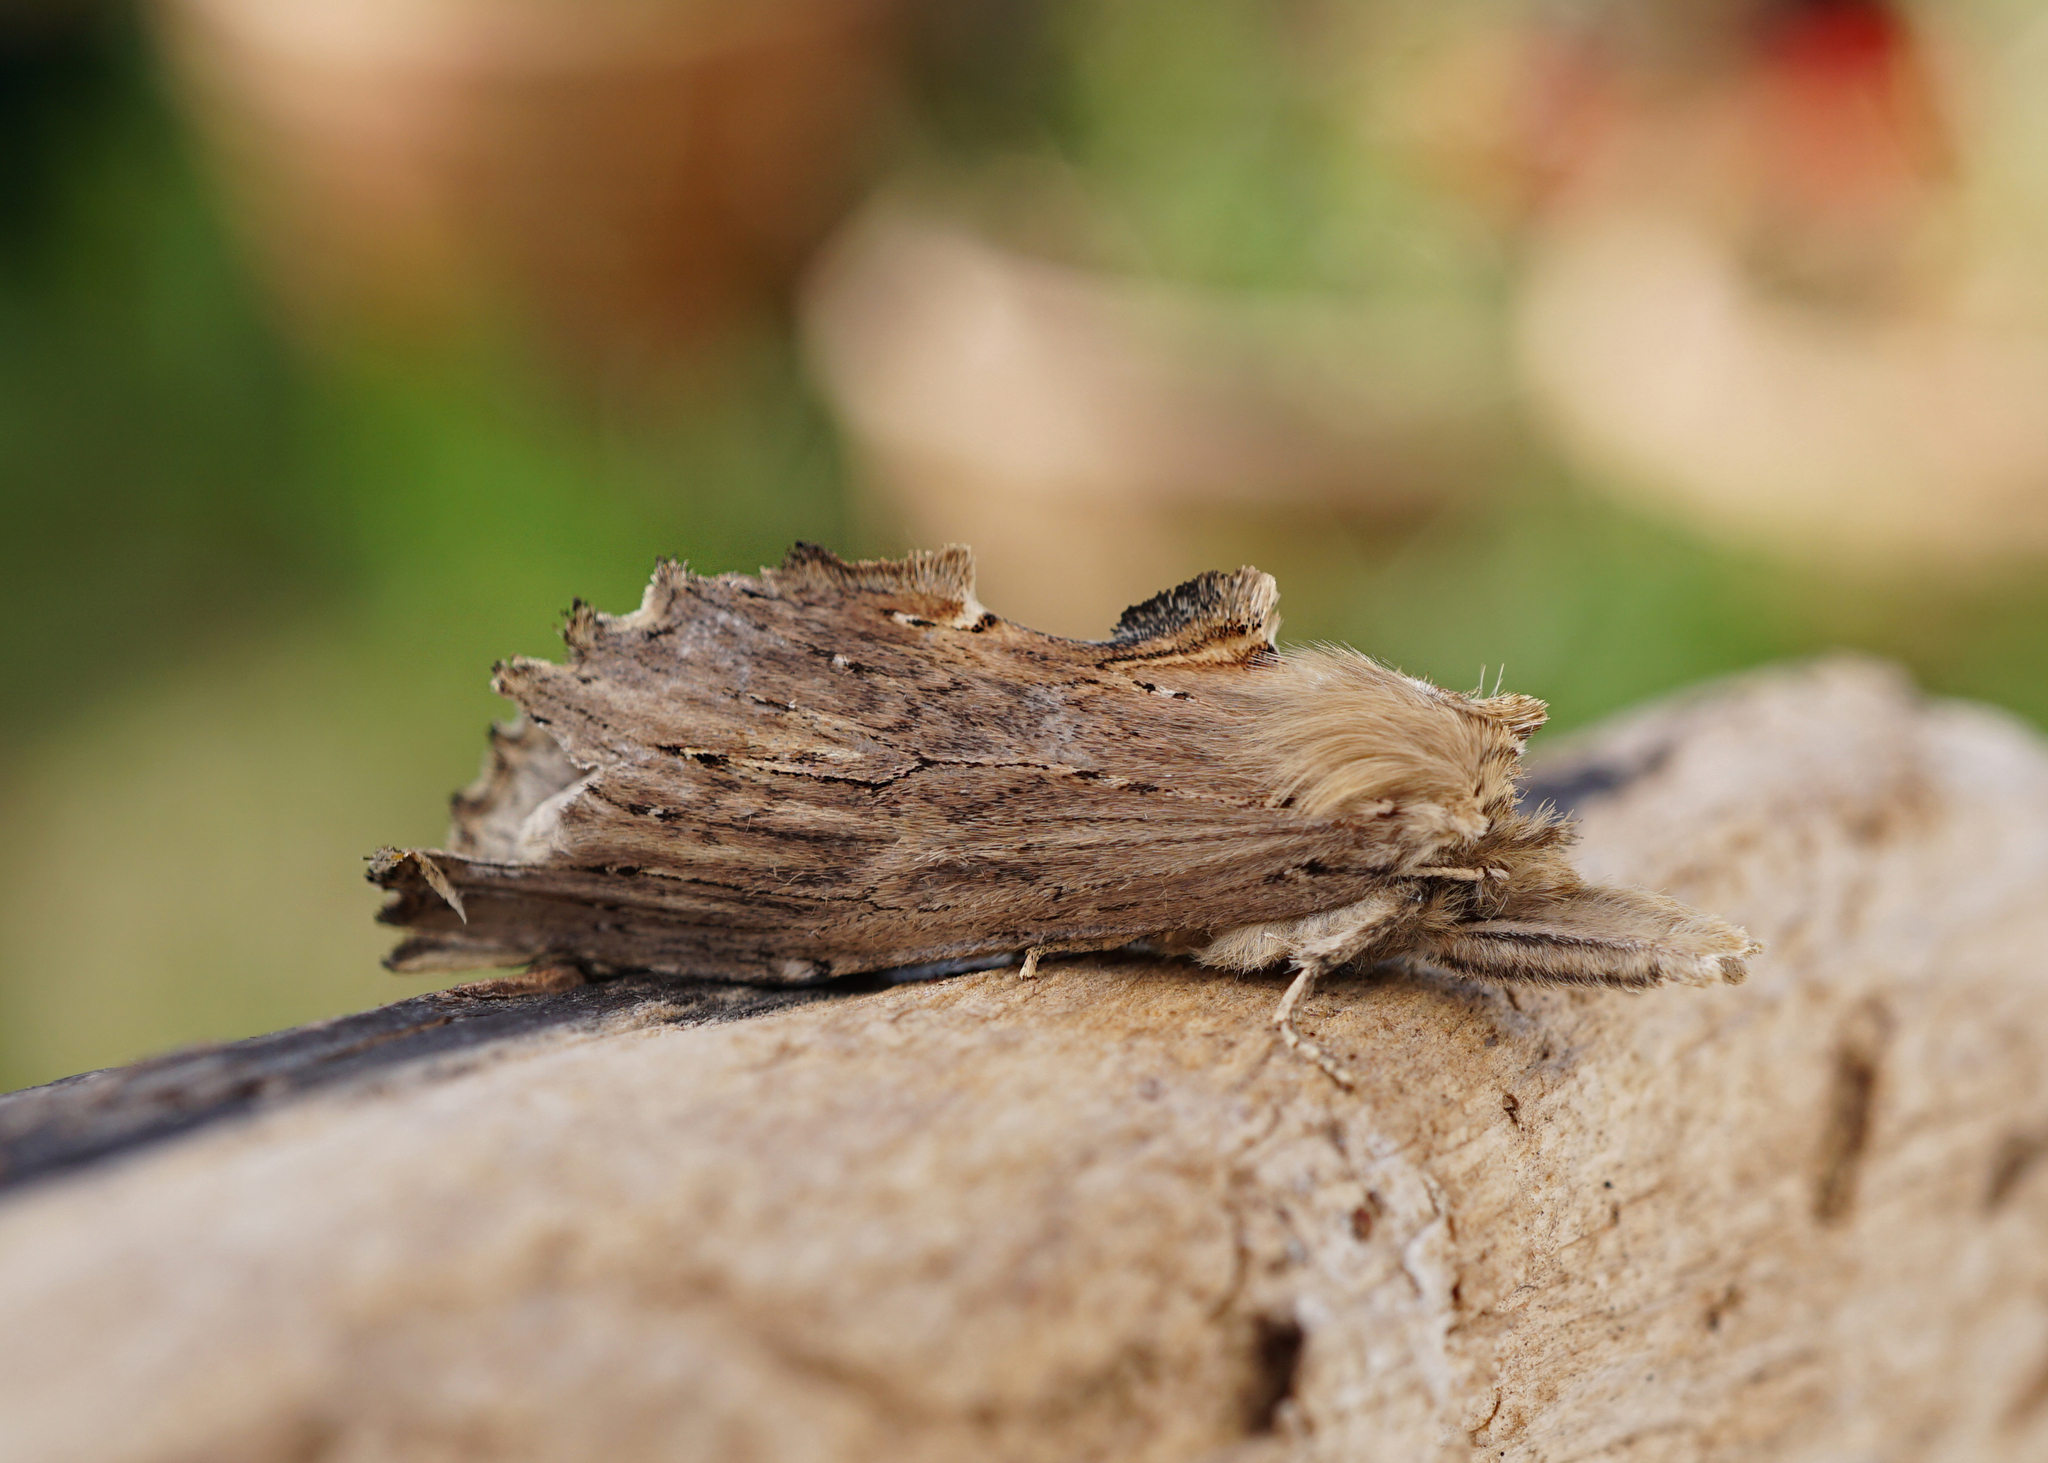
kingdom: Animalia
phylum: Arthropoda
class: Insecta
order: Lepidoptera
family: Notodontidae
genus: Pterostoma
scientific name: Pterostoma palpina
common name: Pale prominent
